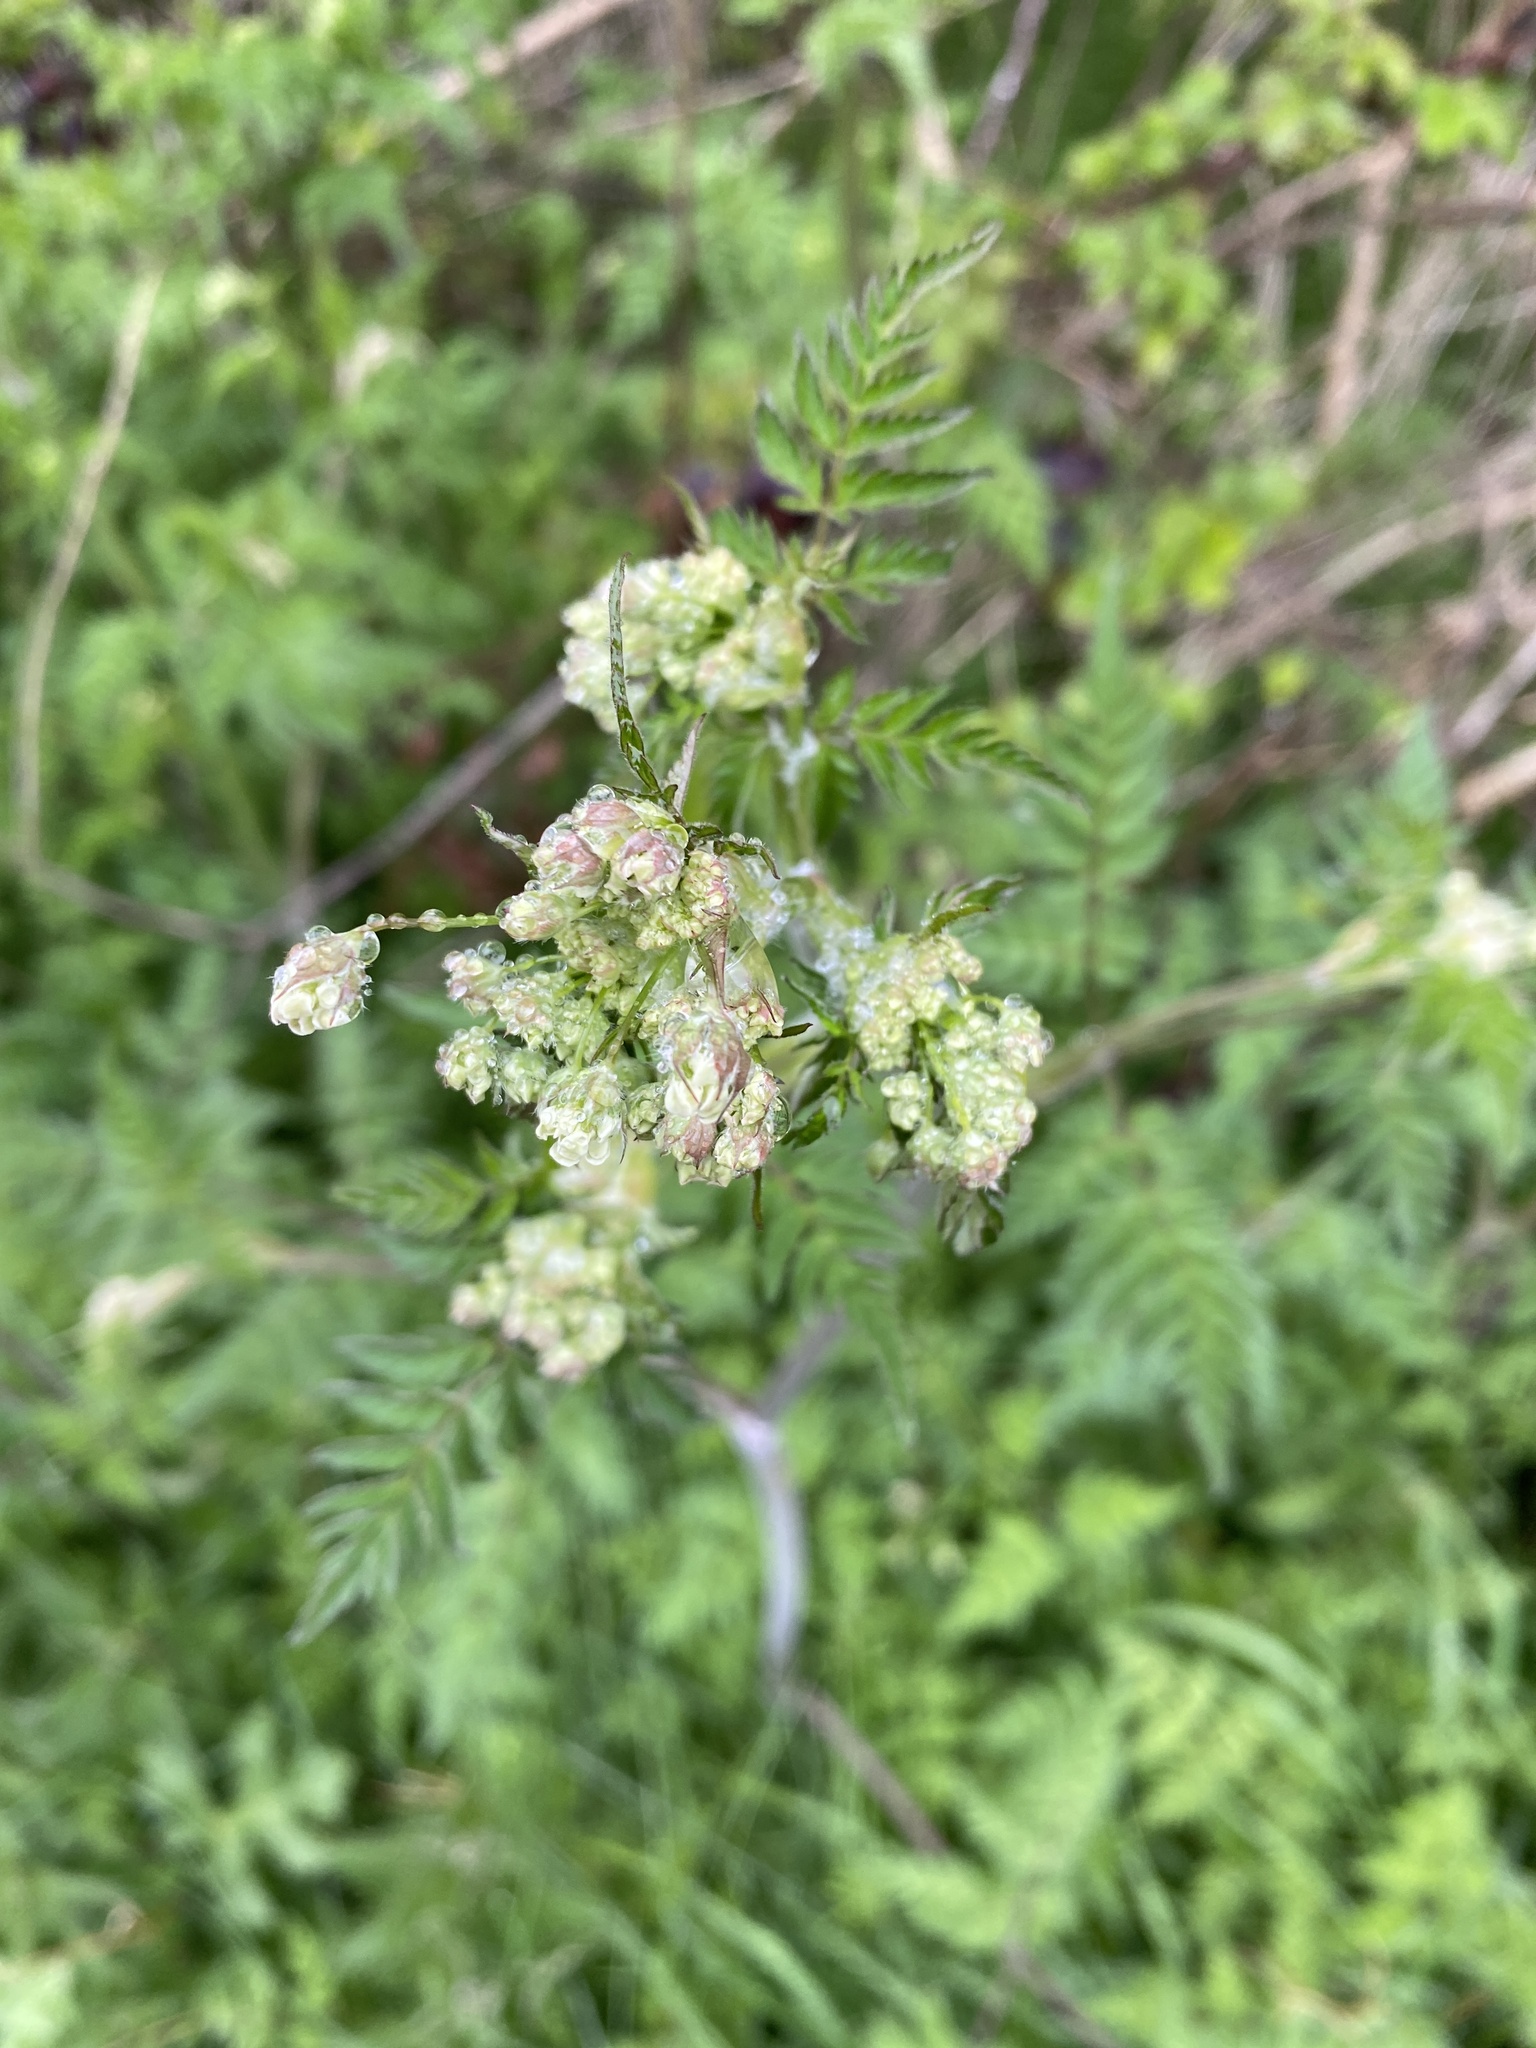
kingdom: Plantae
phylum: Tracheophyta
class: Magnoliopsida
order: Apiales
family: Apiaceae
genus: Anthriscus
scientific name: Anthriscus sylvestris
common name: Cow parsley
